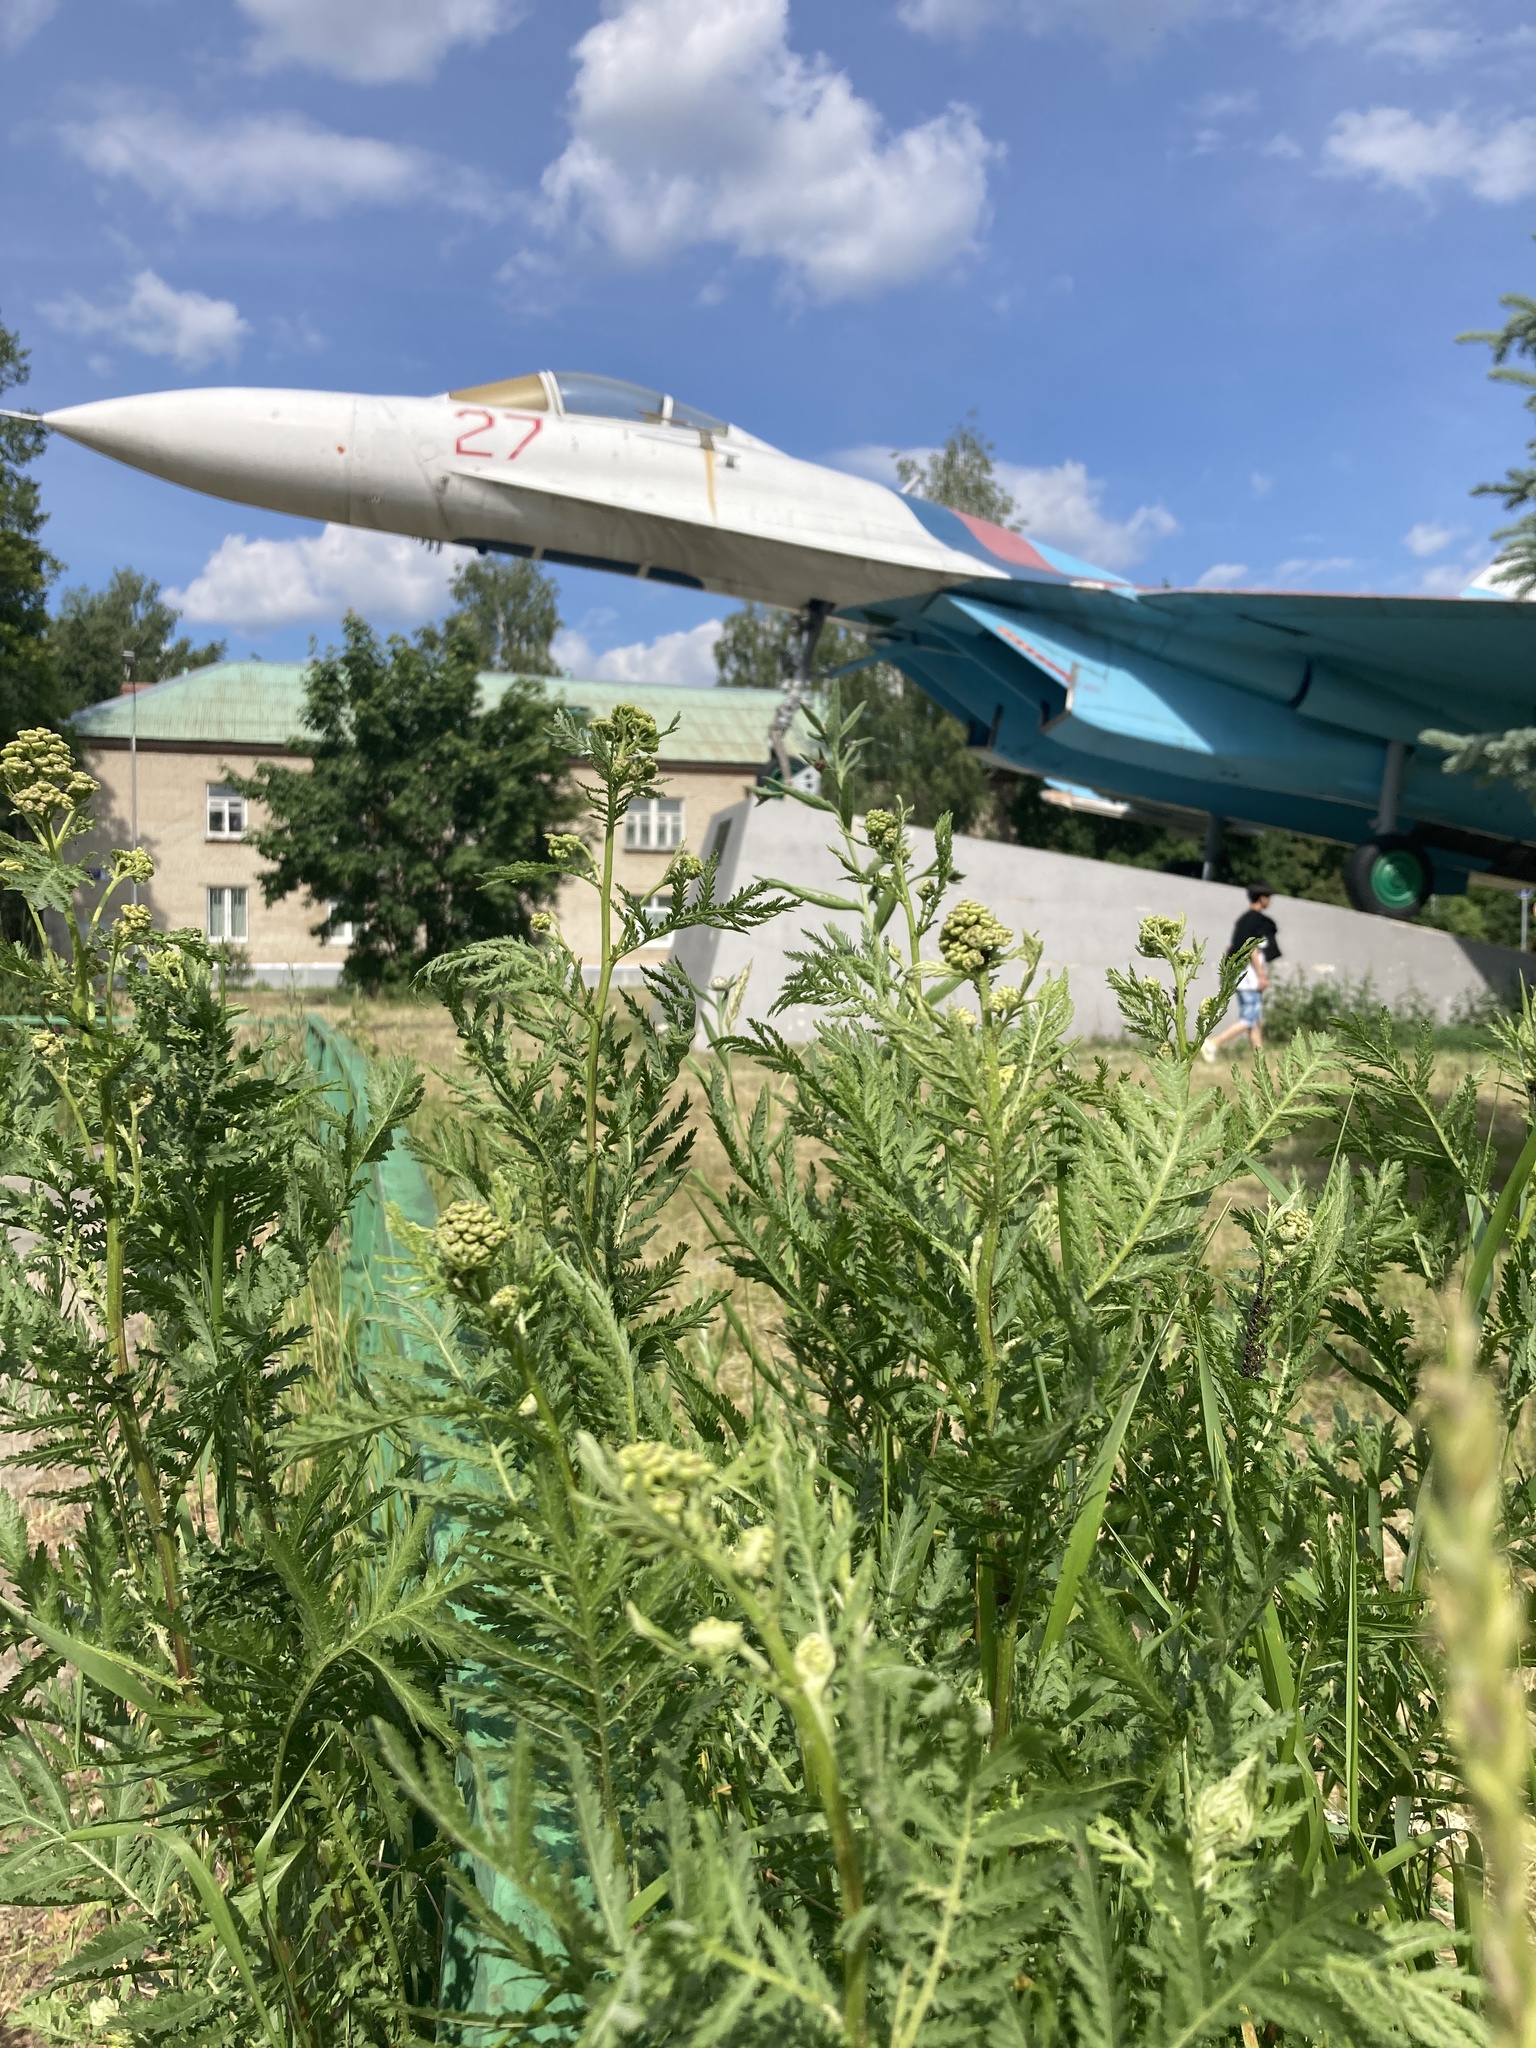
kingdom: Plantae
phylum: Tracheophyta
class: Magnoliopsida
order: Asterales
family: Asteraceae
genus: Tanacetum
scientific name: Tanacetum vulgare
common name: Common tansy
